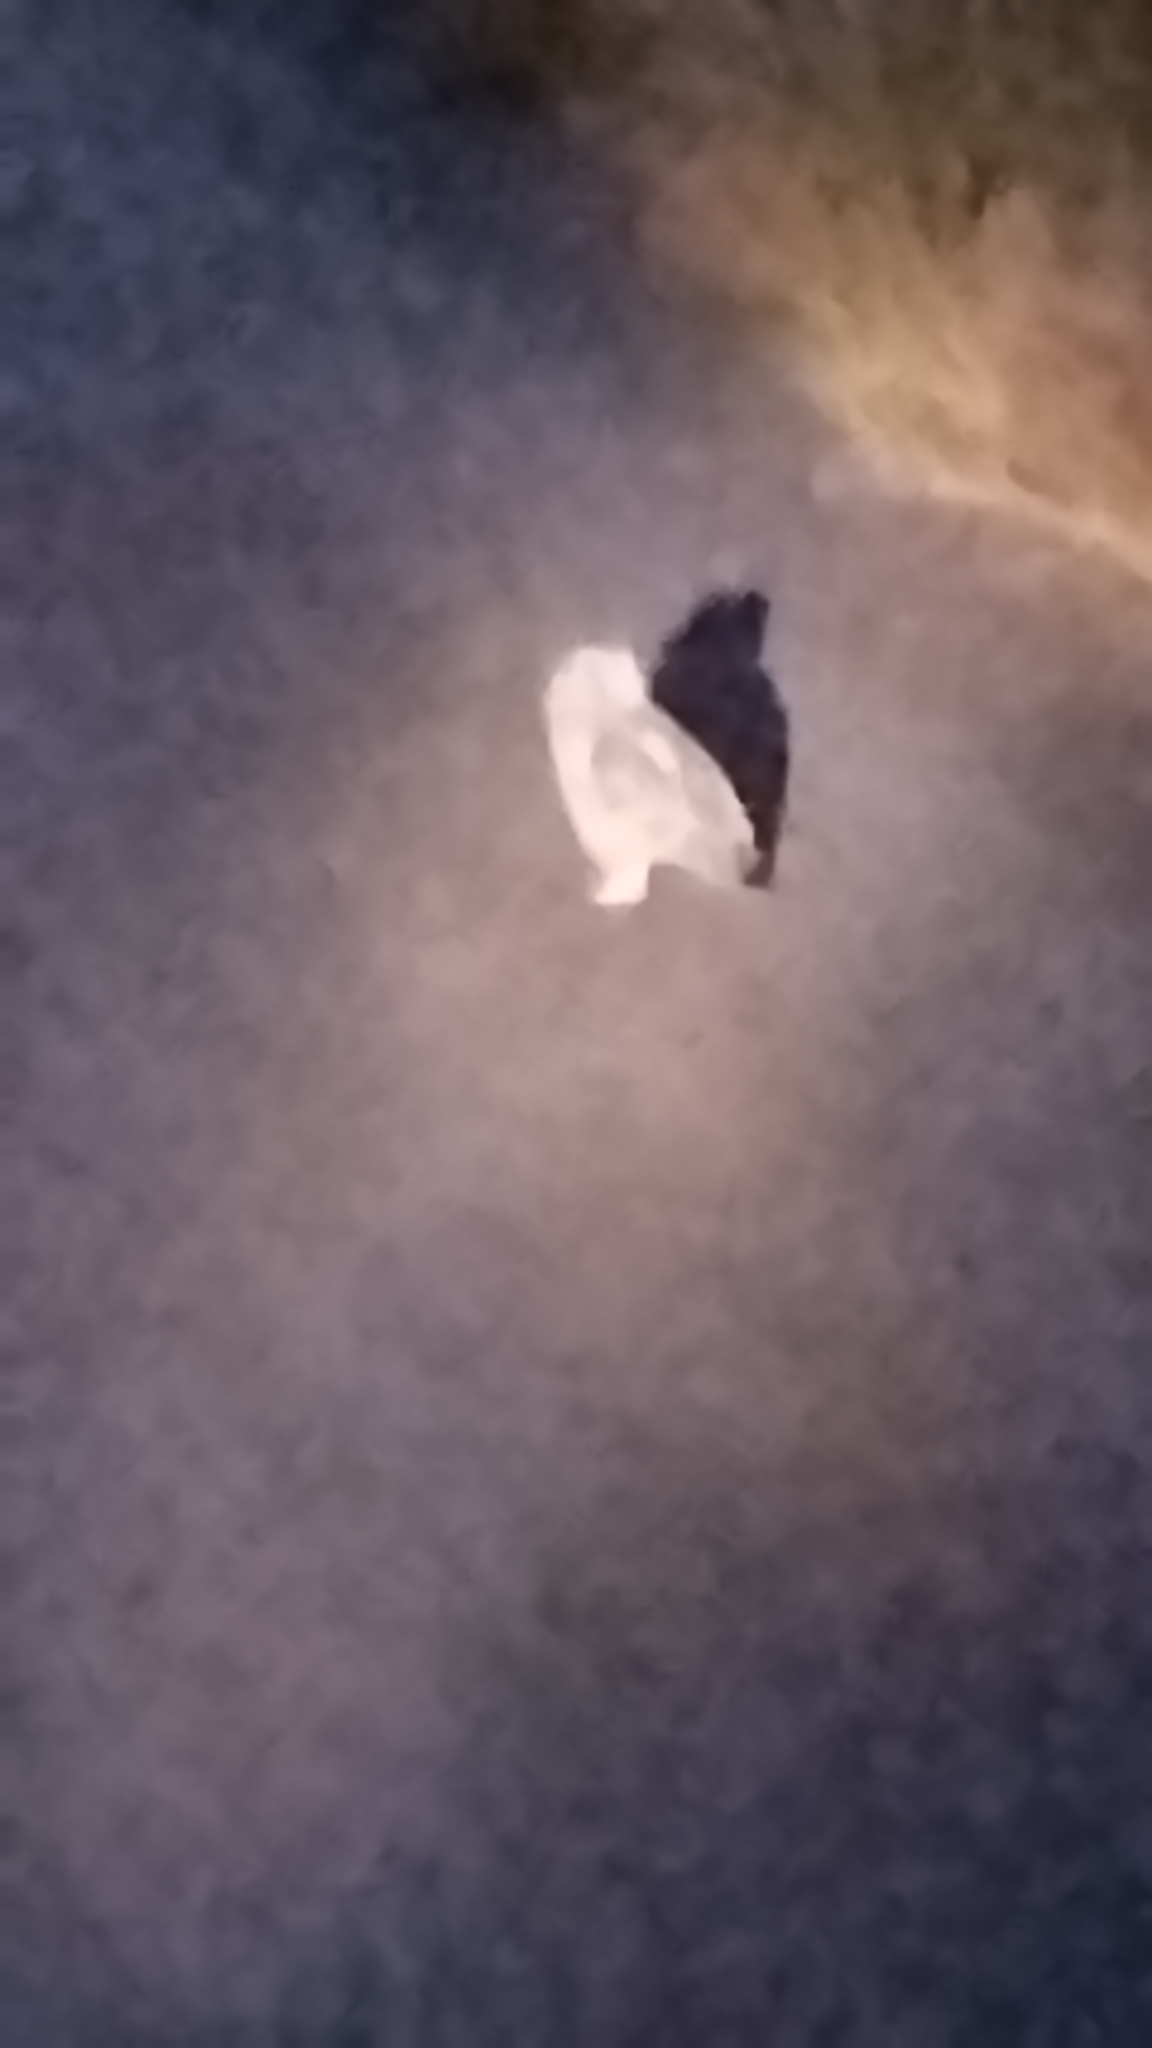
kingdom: Animalia
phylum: Chordata
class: Aves
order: Strigiformes
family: Strigidae
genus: Bubo
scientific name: Bubo africanus
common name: Spotted eagle-owl
